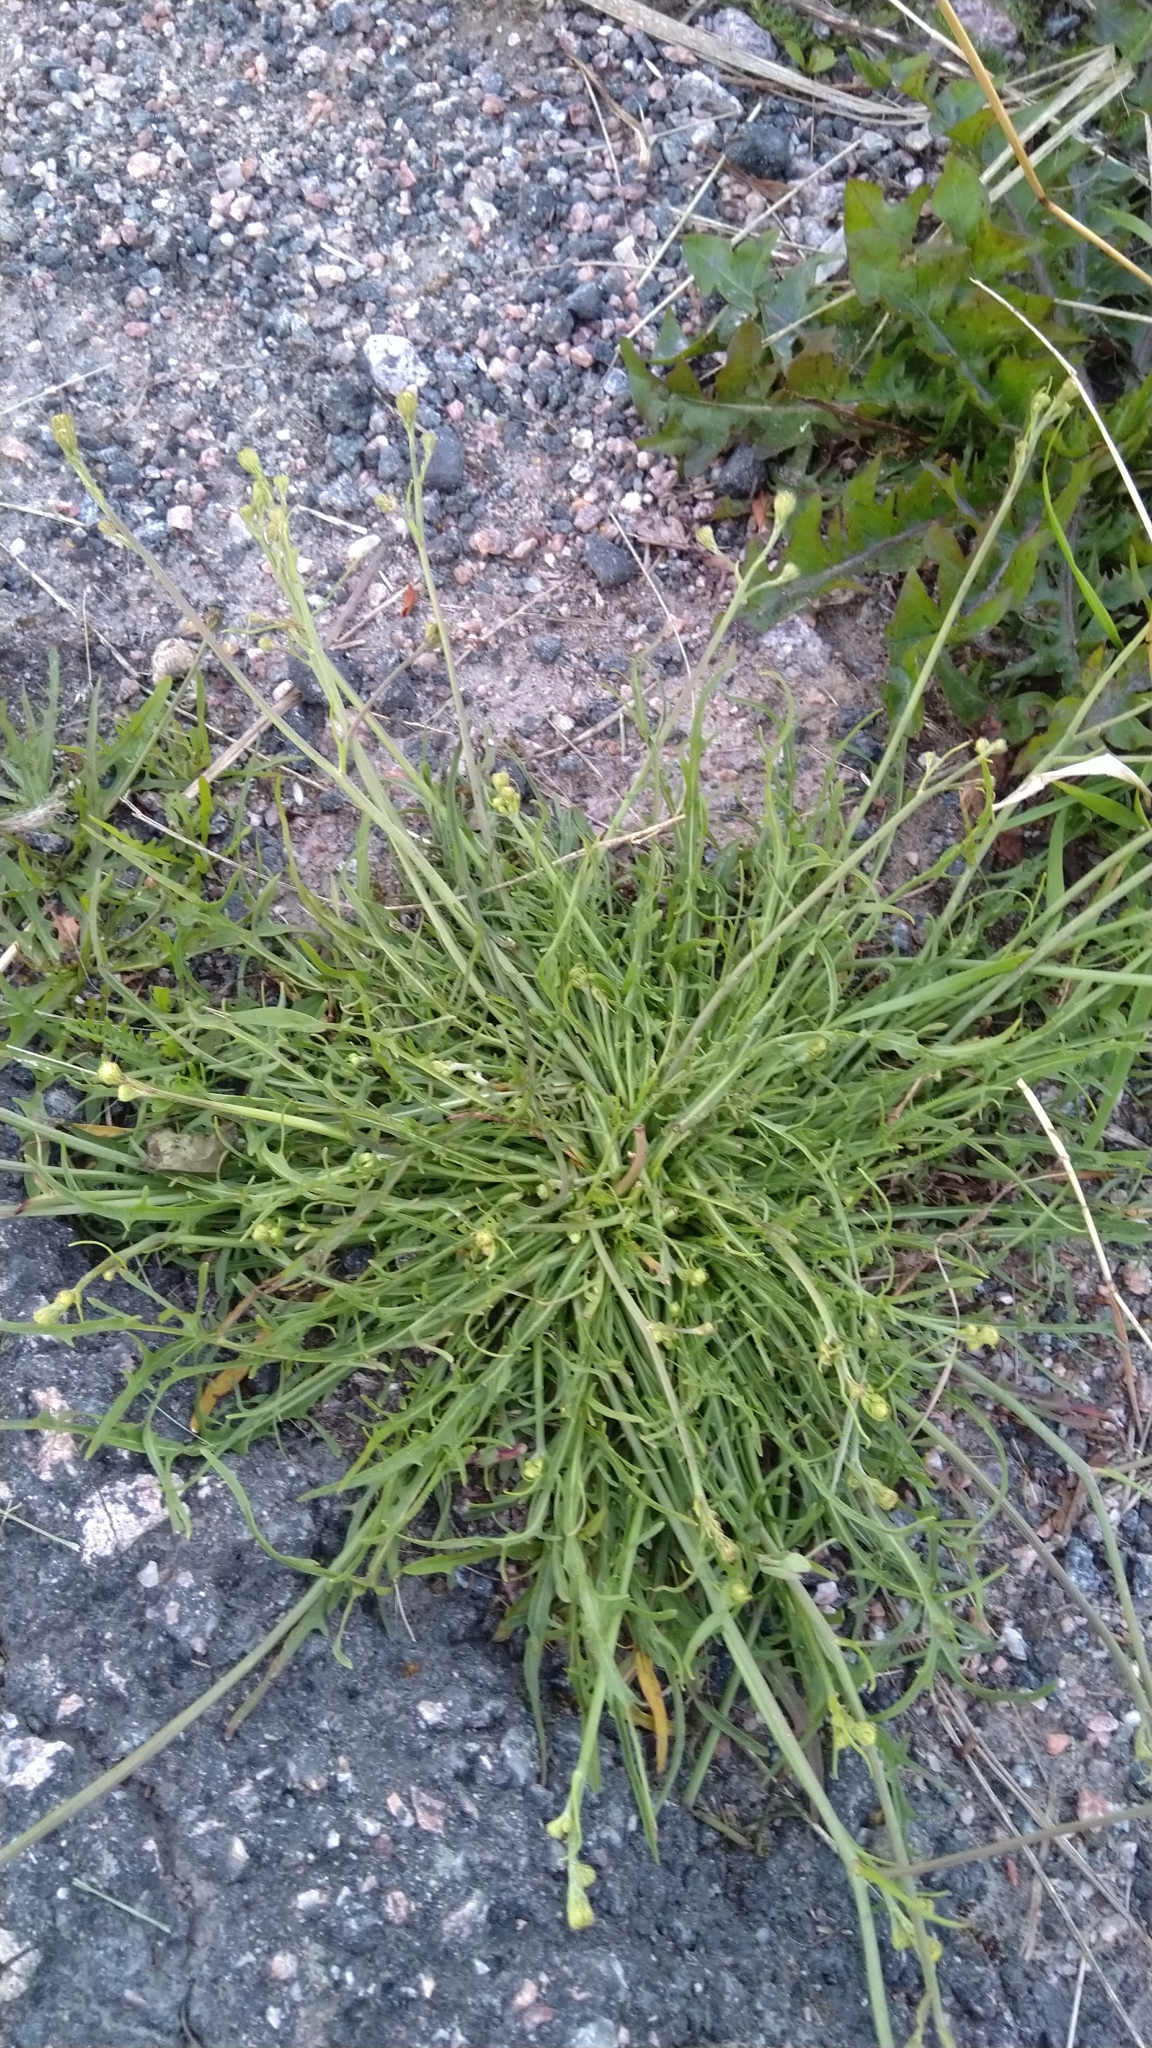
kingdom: Plantae
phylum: Tracheophyta
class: Magnoliopsida
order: Asterales
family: Asteraceae
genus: Scorzoneroides
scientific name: Scorzoneroides autumnalis
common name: Autumn hawkbit
